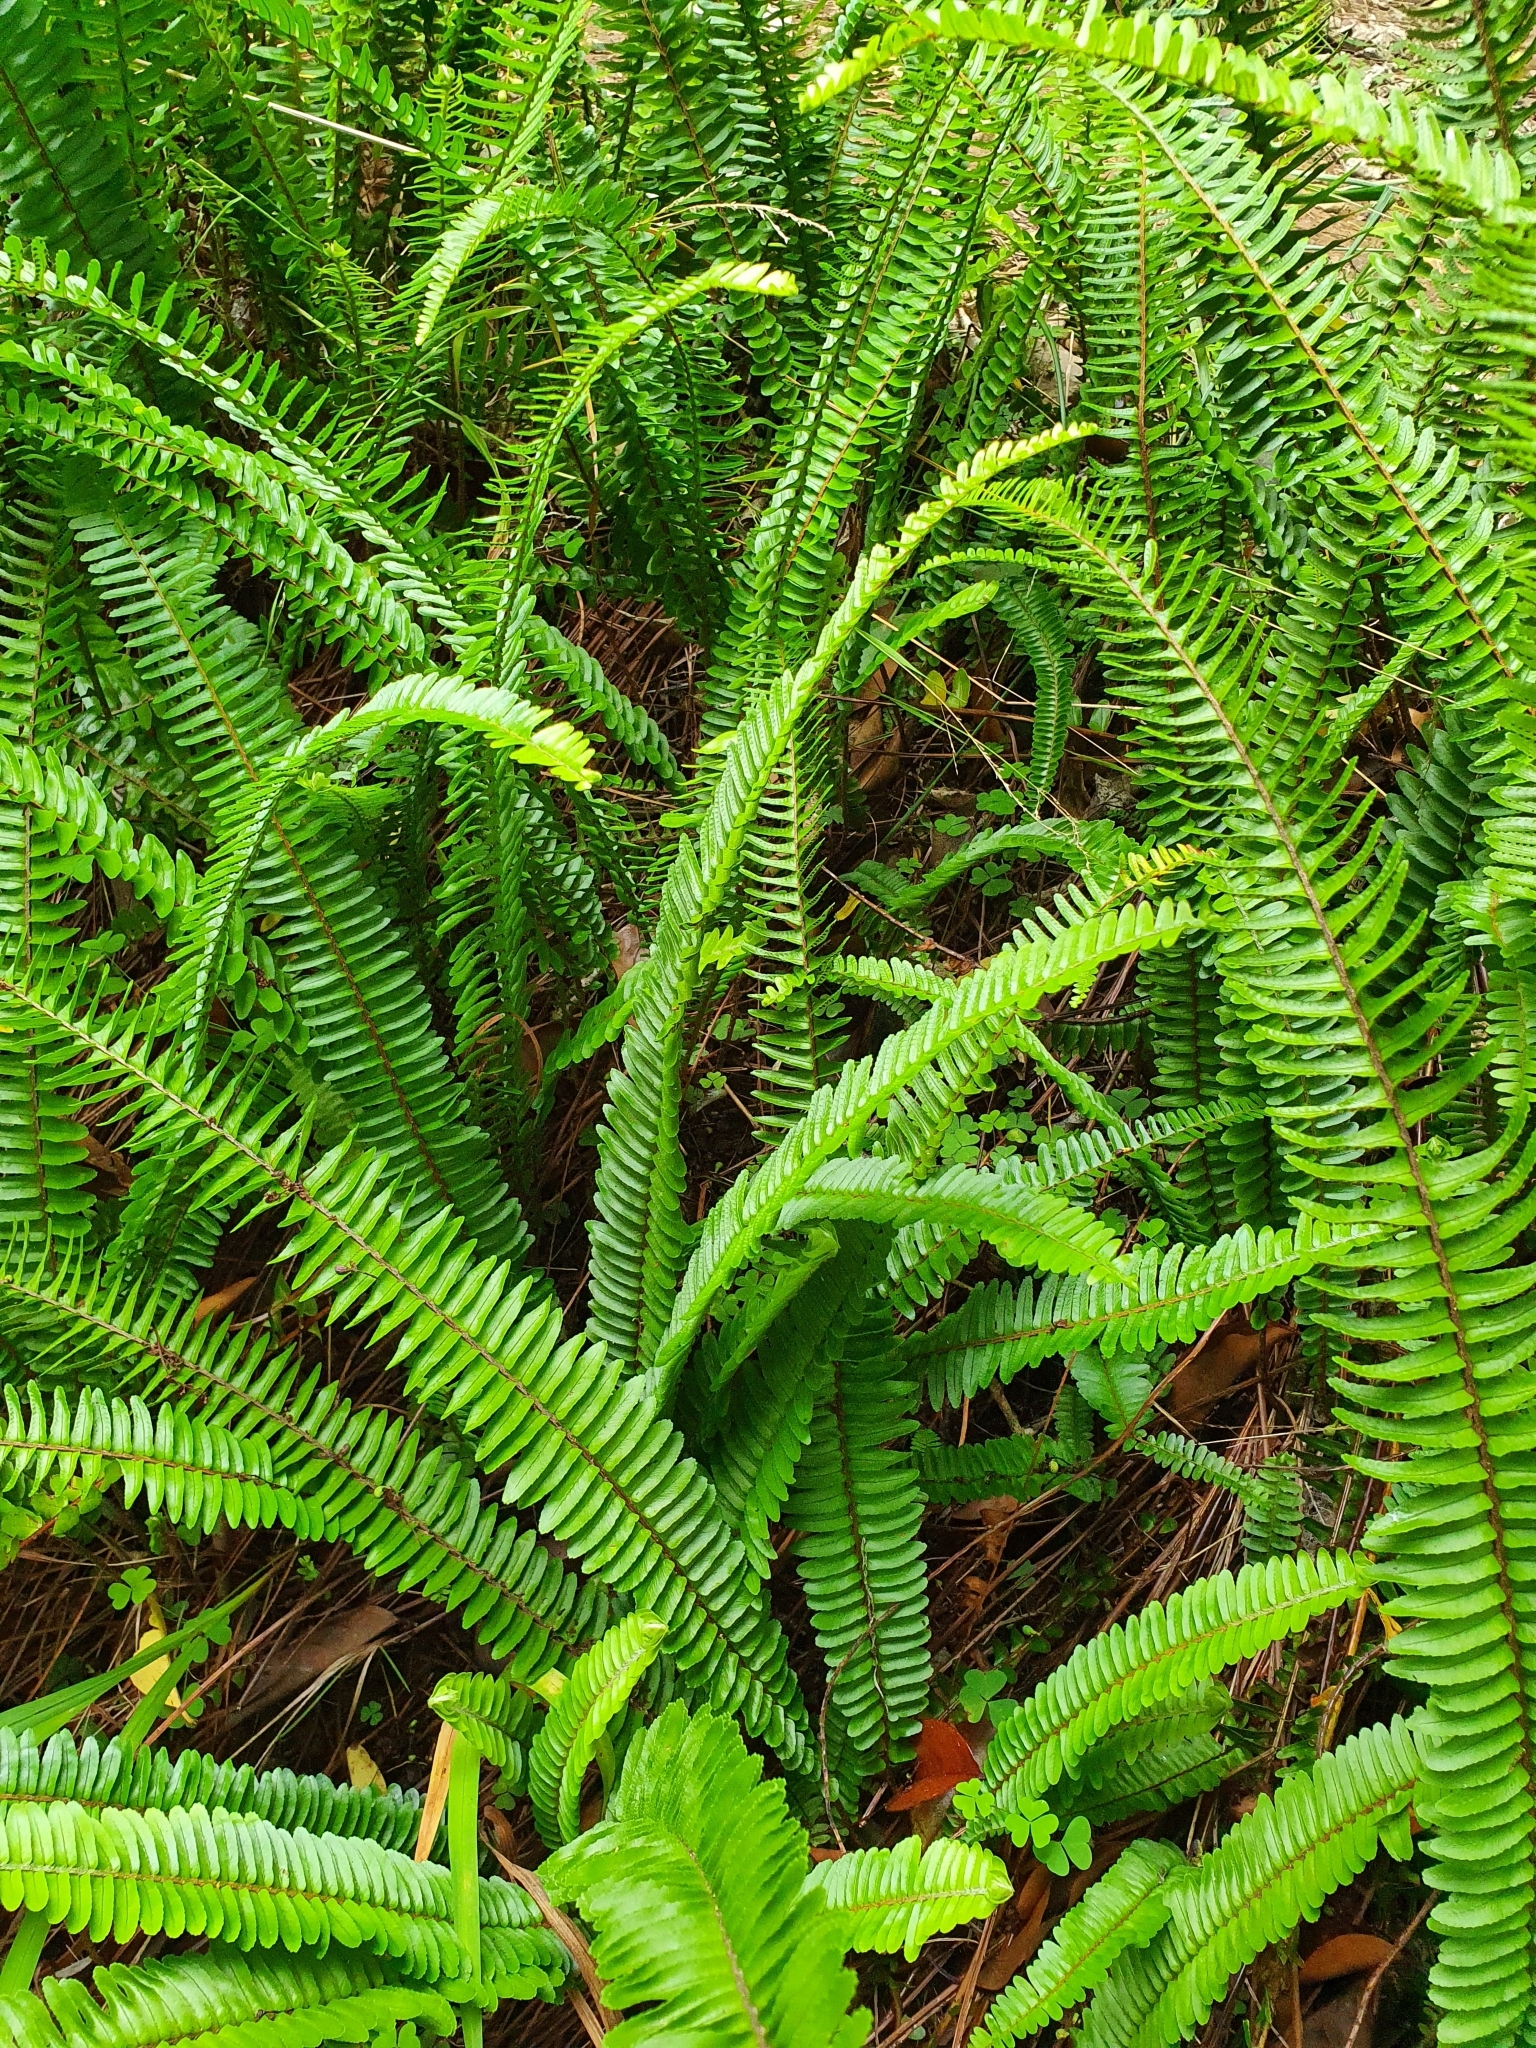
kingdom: Plantae
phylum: Tracheophyta
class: Polypodiopsida
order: Polypodiales
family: Nephrolepidaceae
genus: Nephrolepis
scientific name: Nephrolepis cordifolia
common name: Narrow swordfern
